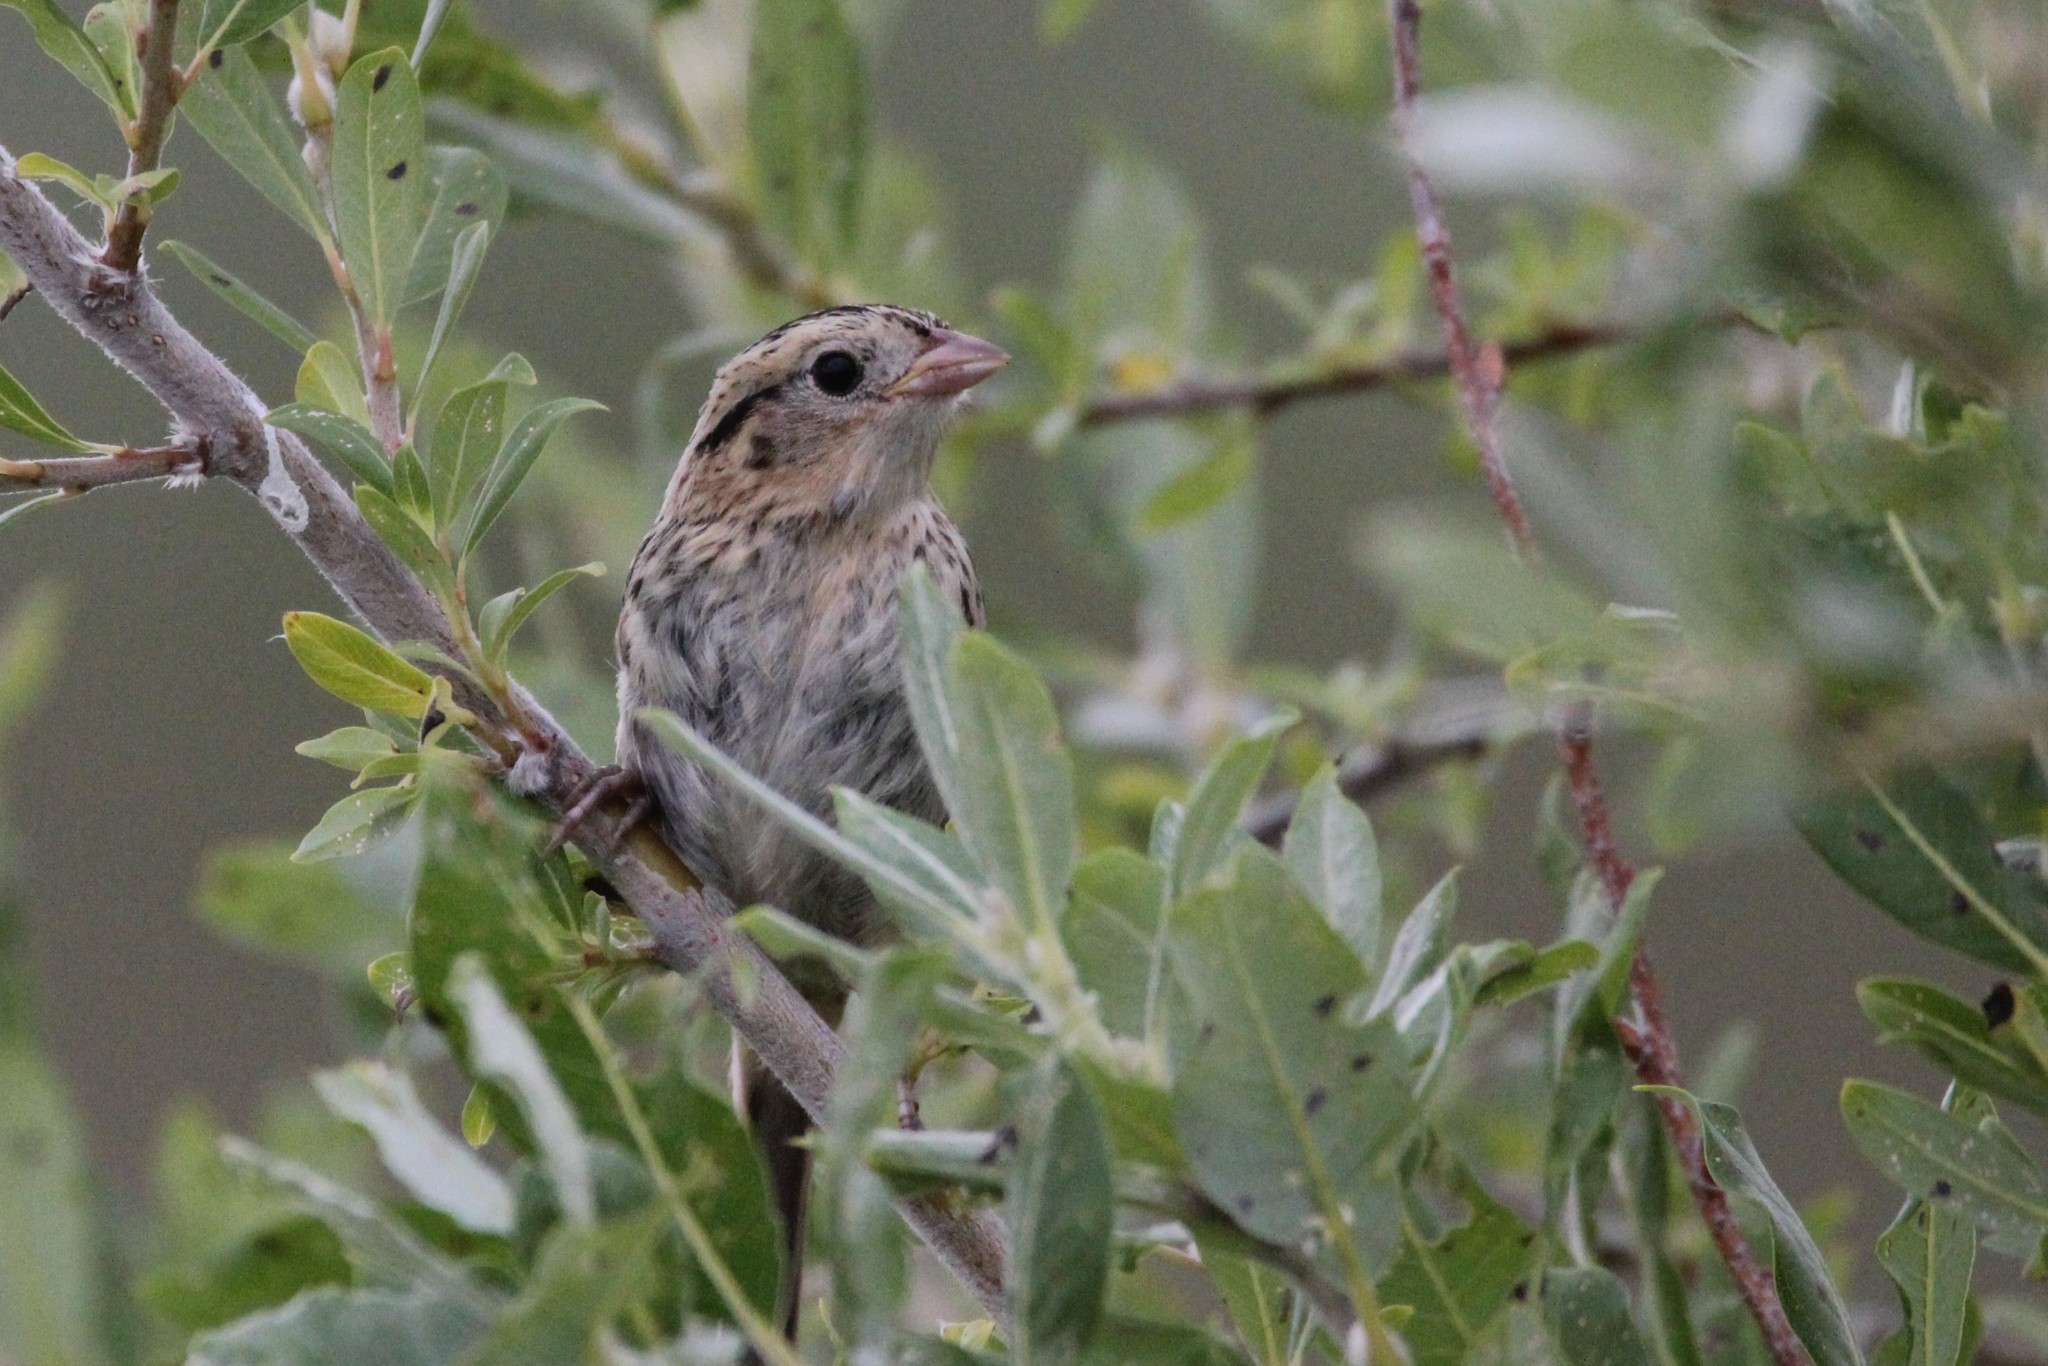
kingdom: Animalia
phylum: Chordata
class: Aves
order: Passeriformes
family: Passerellidae
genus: Ammospiza
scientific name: Ammospiza leconteii
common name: Le conte's sparrow
